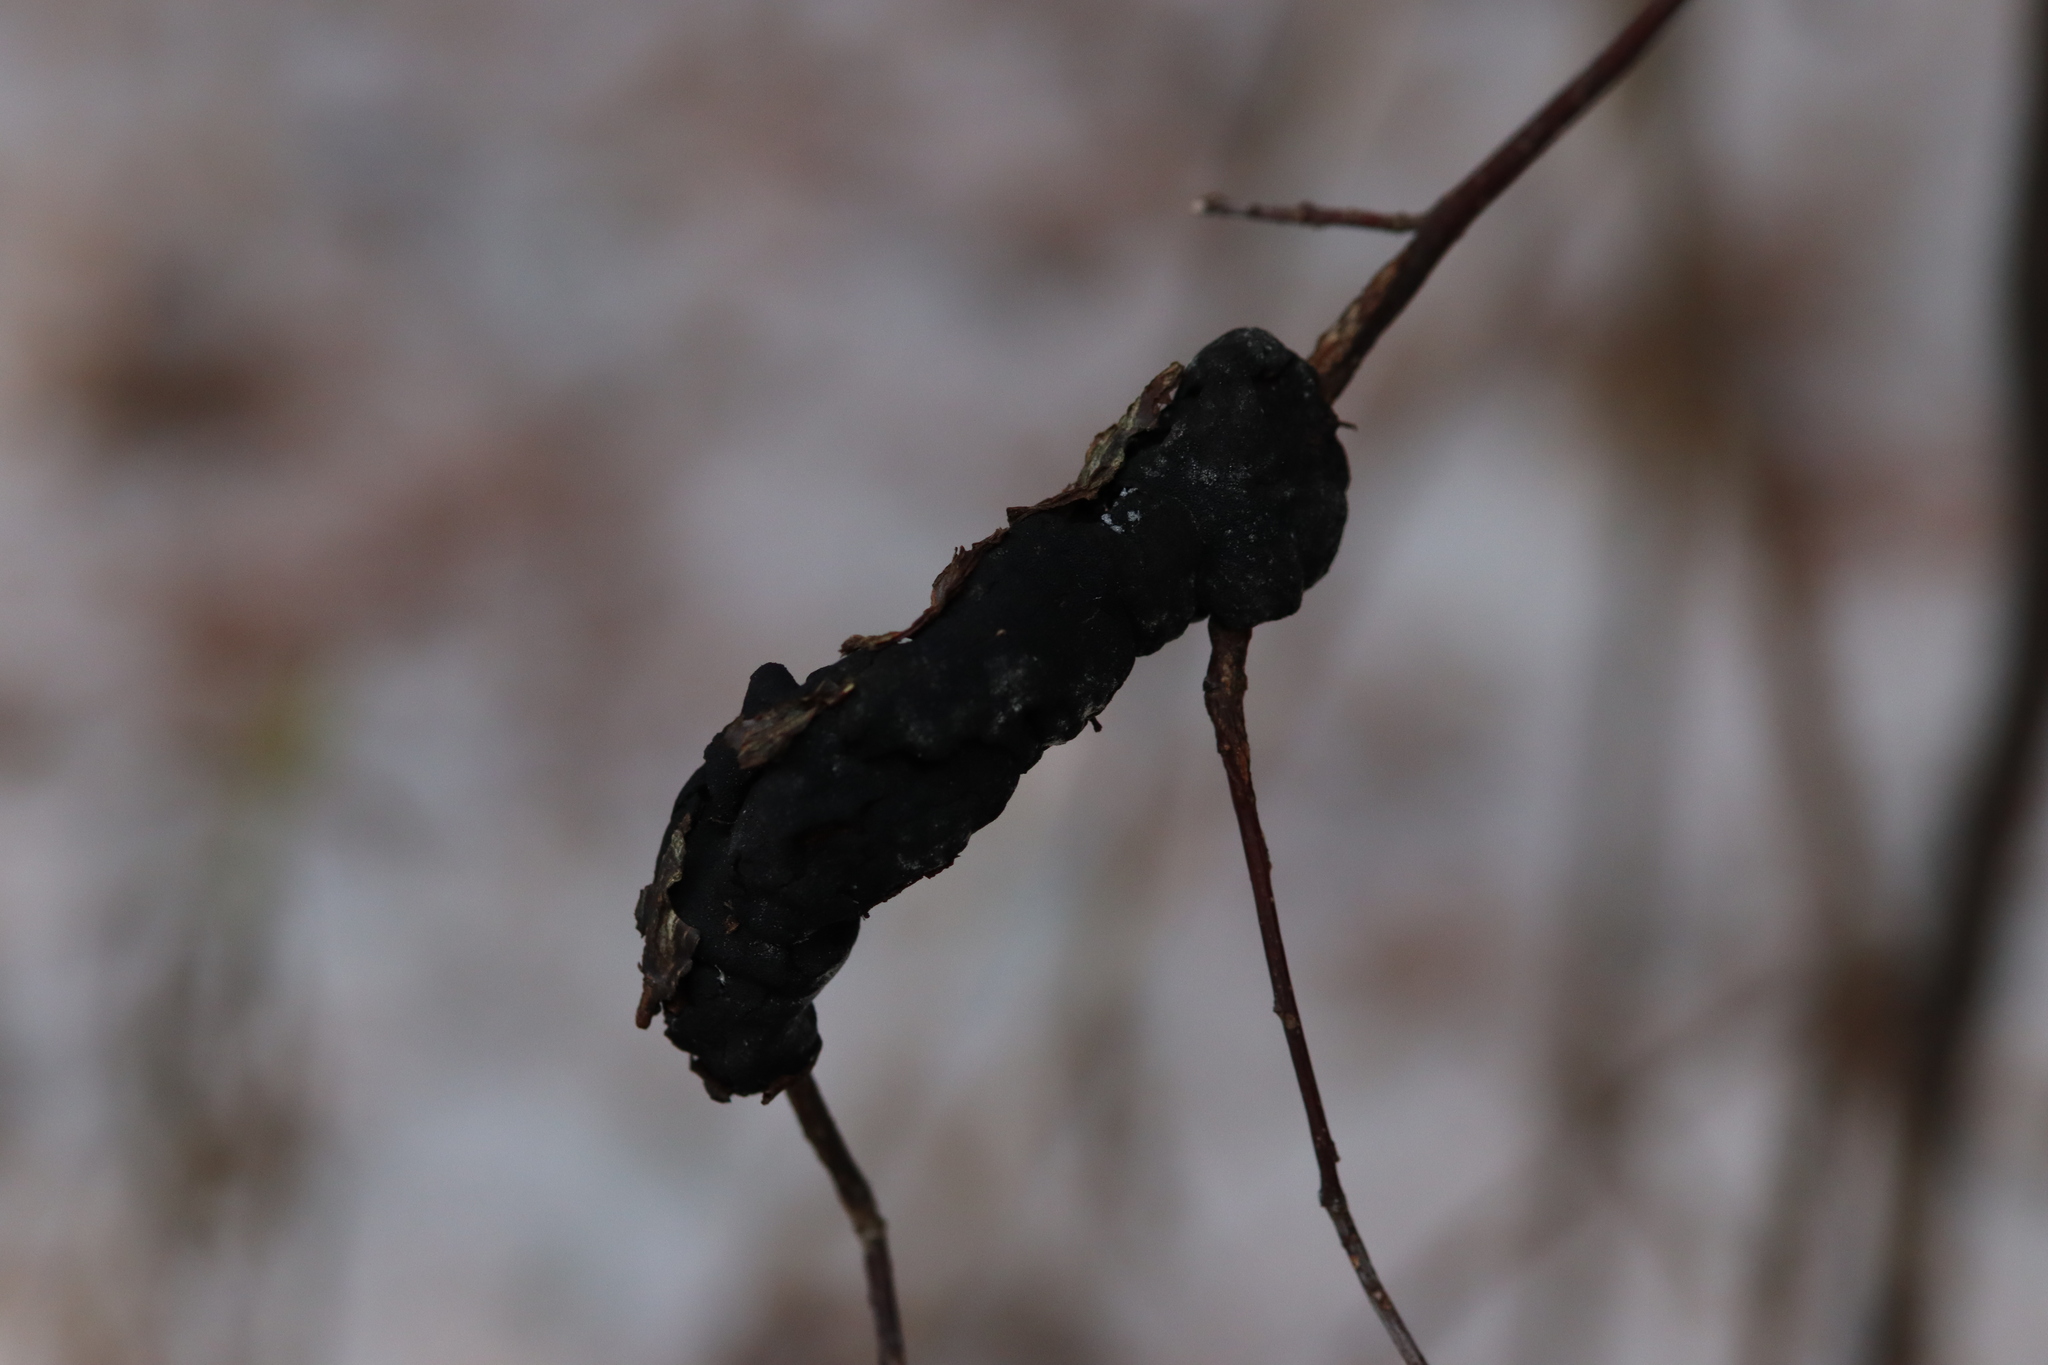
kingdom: Fungi
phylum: Ascomycota
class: Dothideomycetes
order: Venturiales
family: Venturiaceae
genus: Apiosporina
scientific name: Apiosporina morbosa
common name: Black knot
